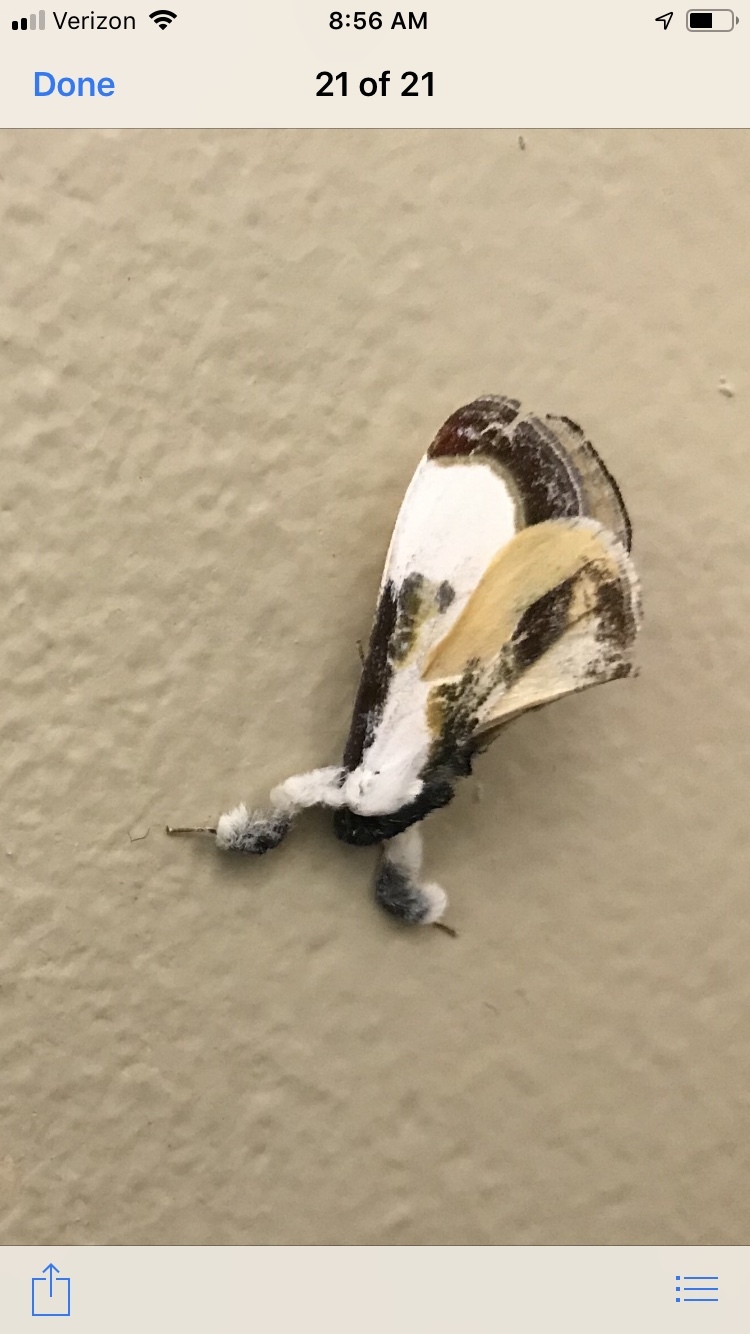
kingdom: Animalia
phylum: Arthropoda
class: Insecta
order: Lepidoptera
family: Noctuidae
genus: Eudryas
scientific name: Eudryas grata
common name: Beautiful wood-nymph
